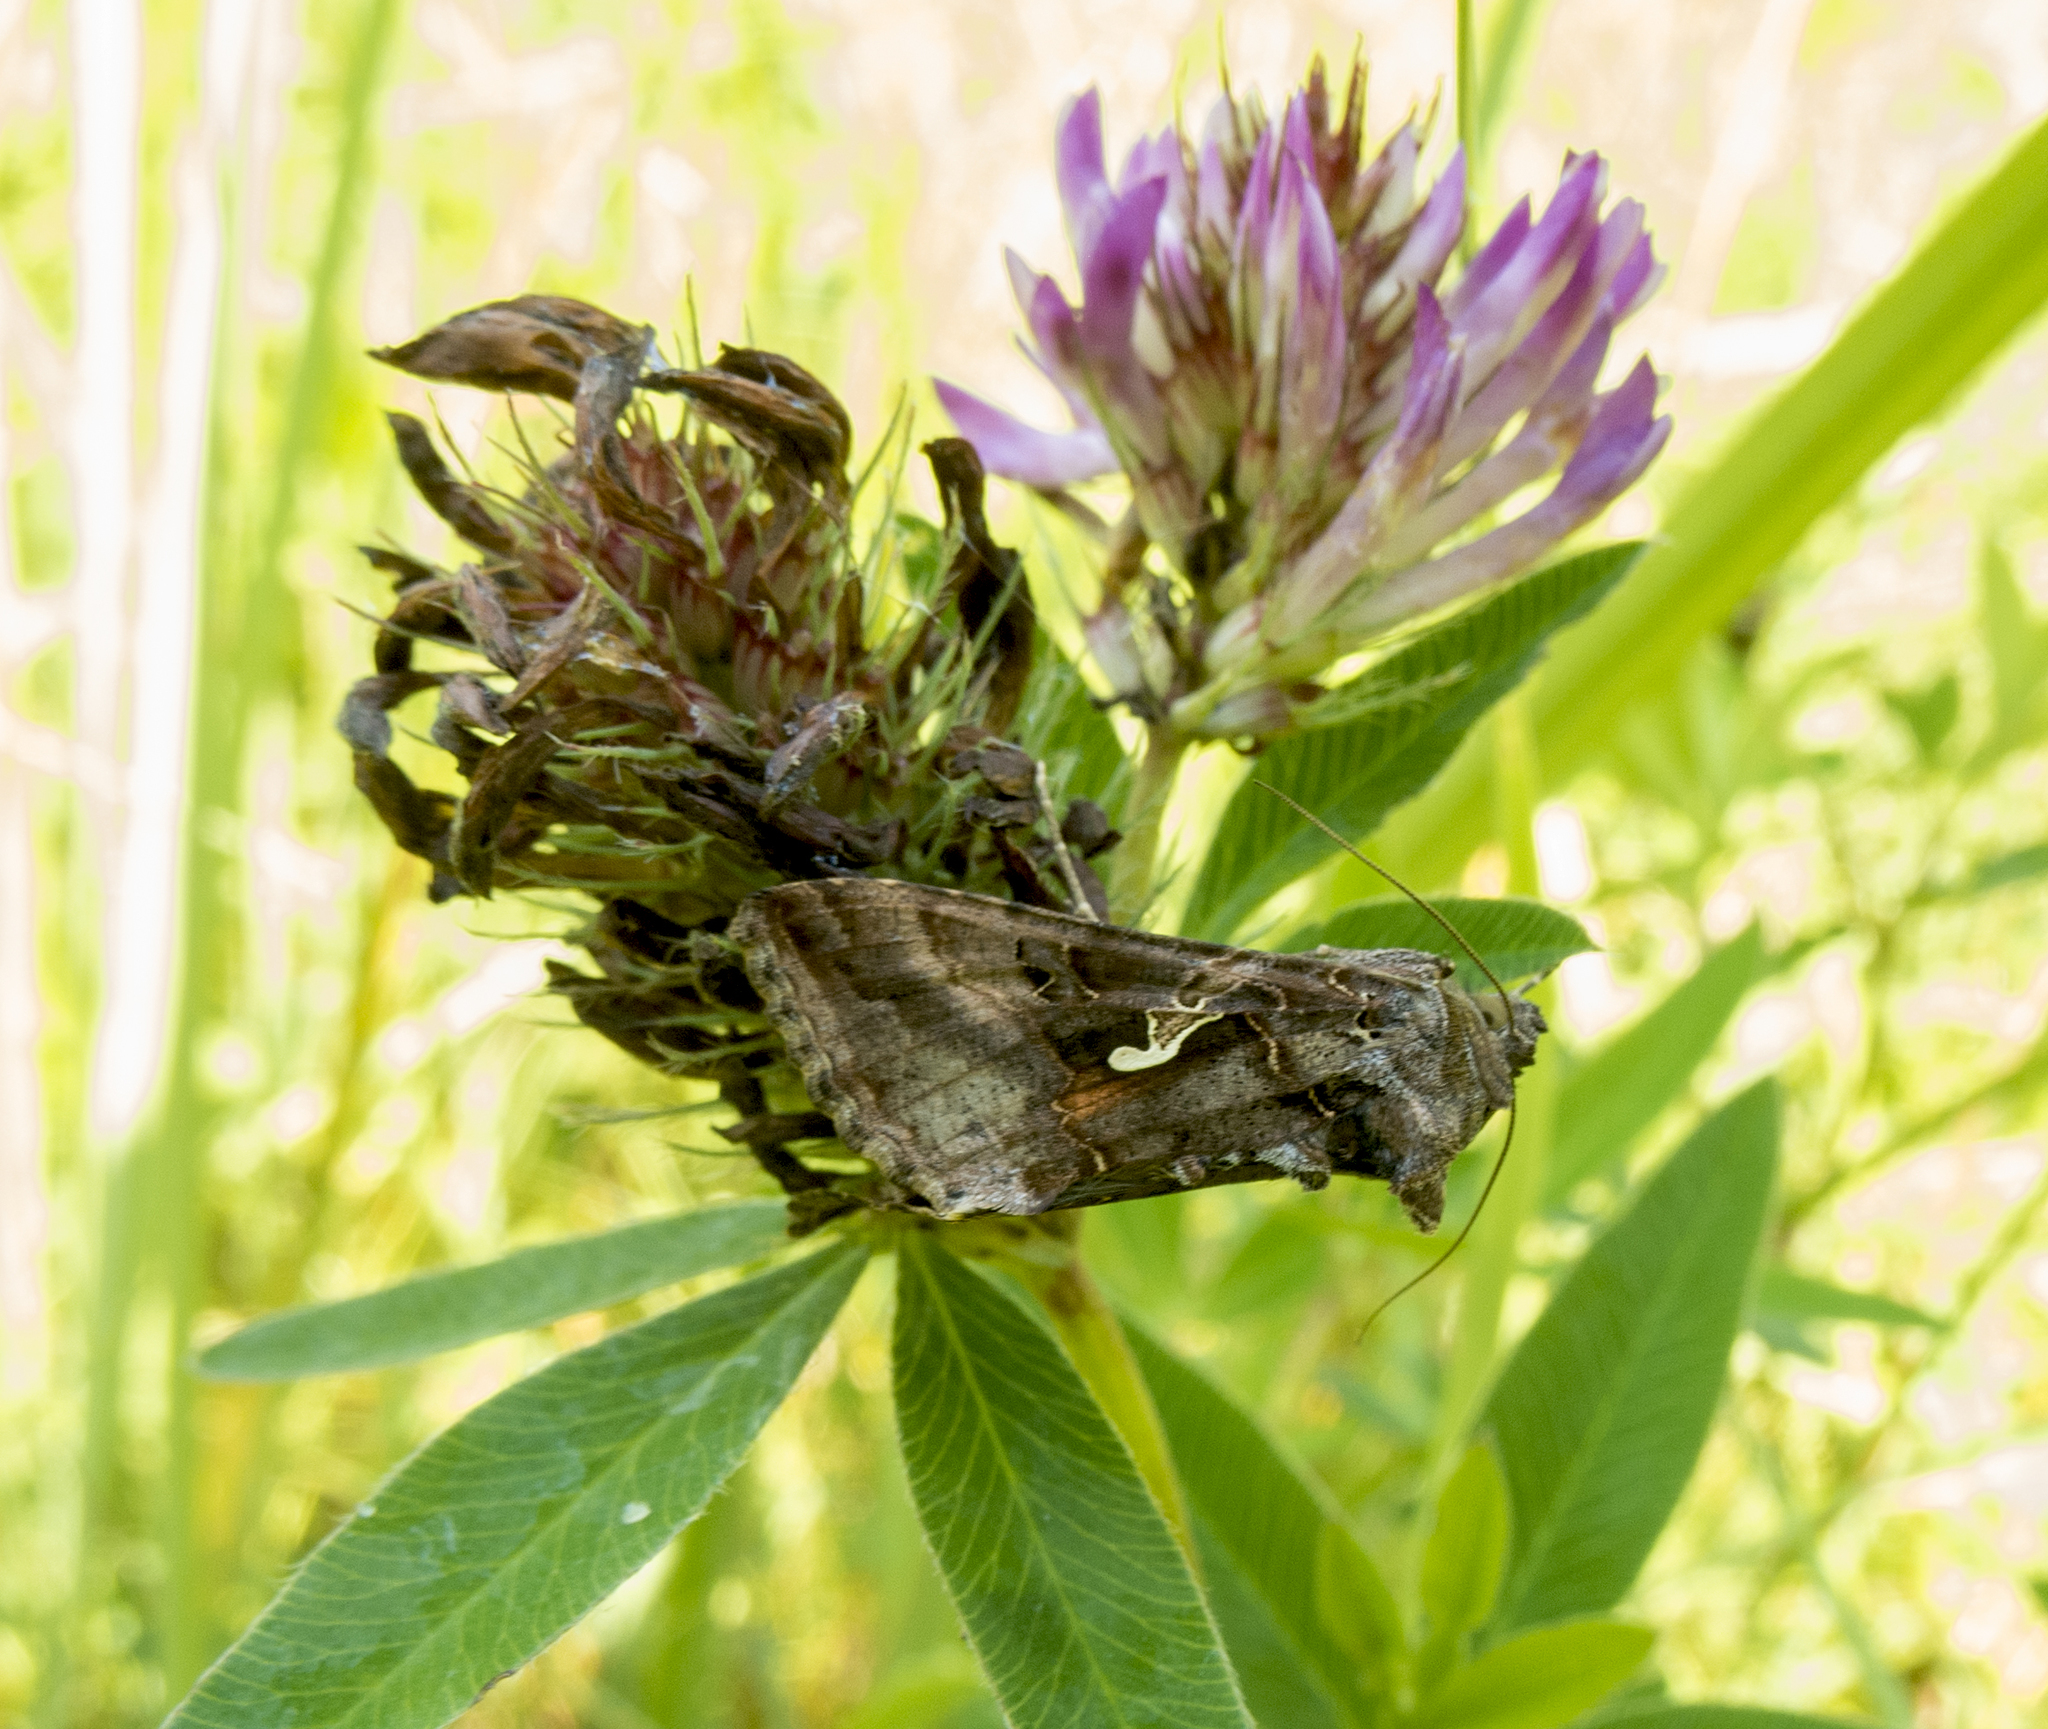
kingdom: Animalia
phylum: Arthropoda
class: Insecta
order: Lepidoptera
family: Noctuidae
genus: Autographa
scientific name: Autographa gamma
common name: Silver y
